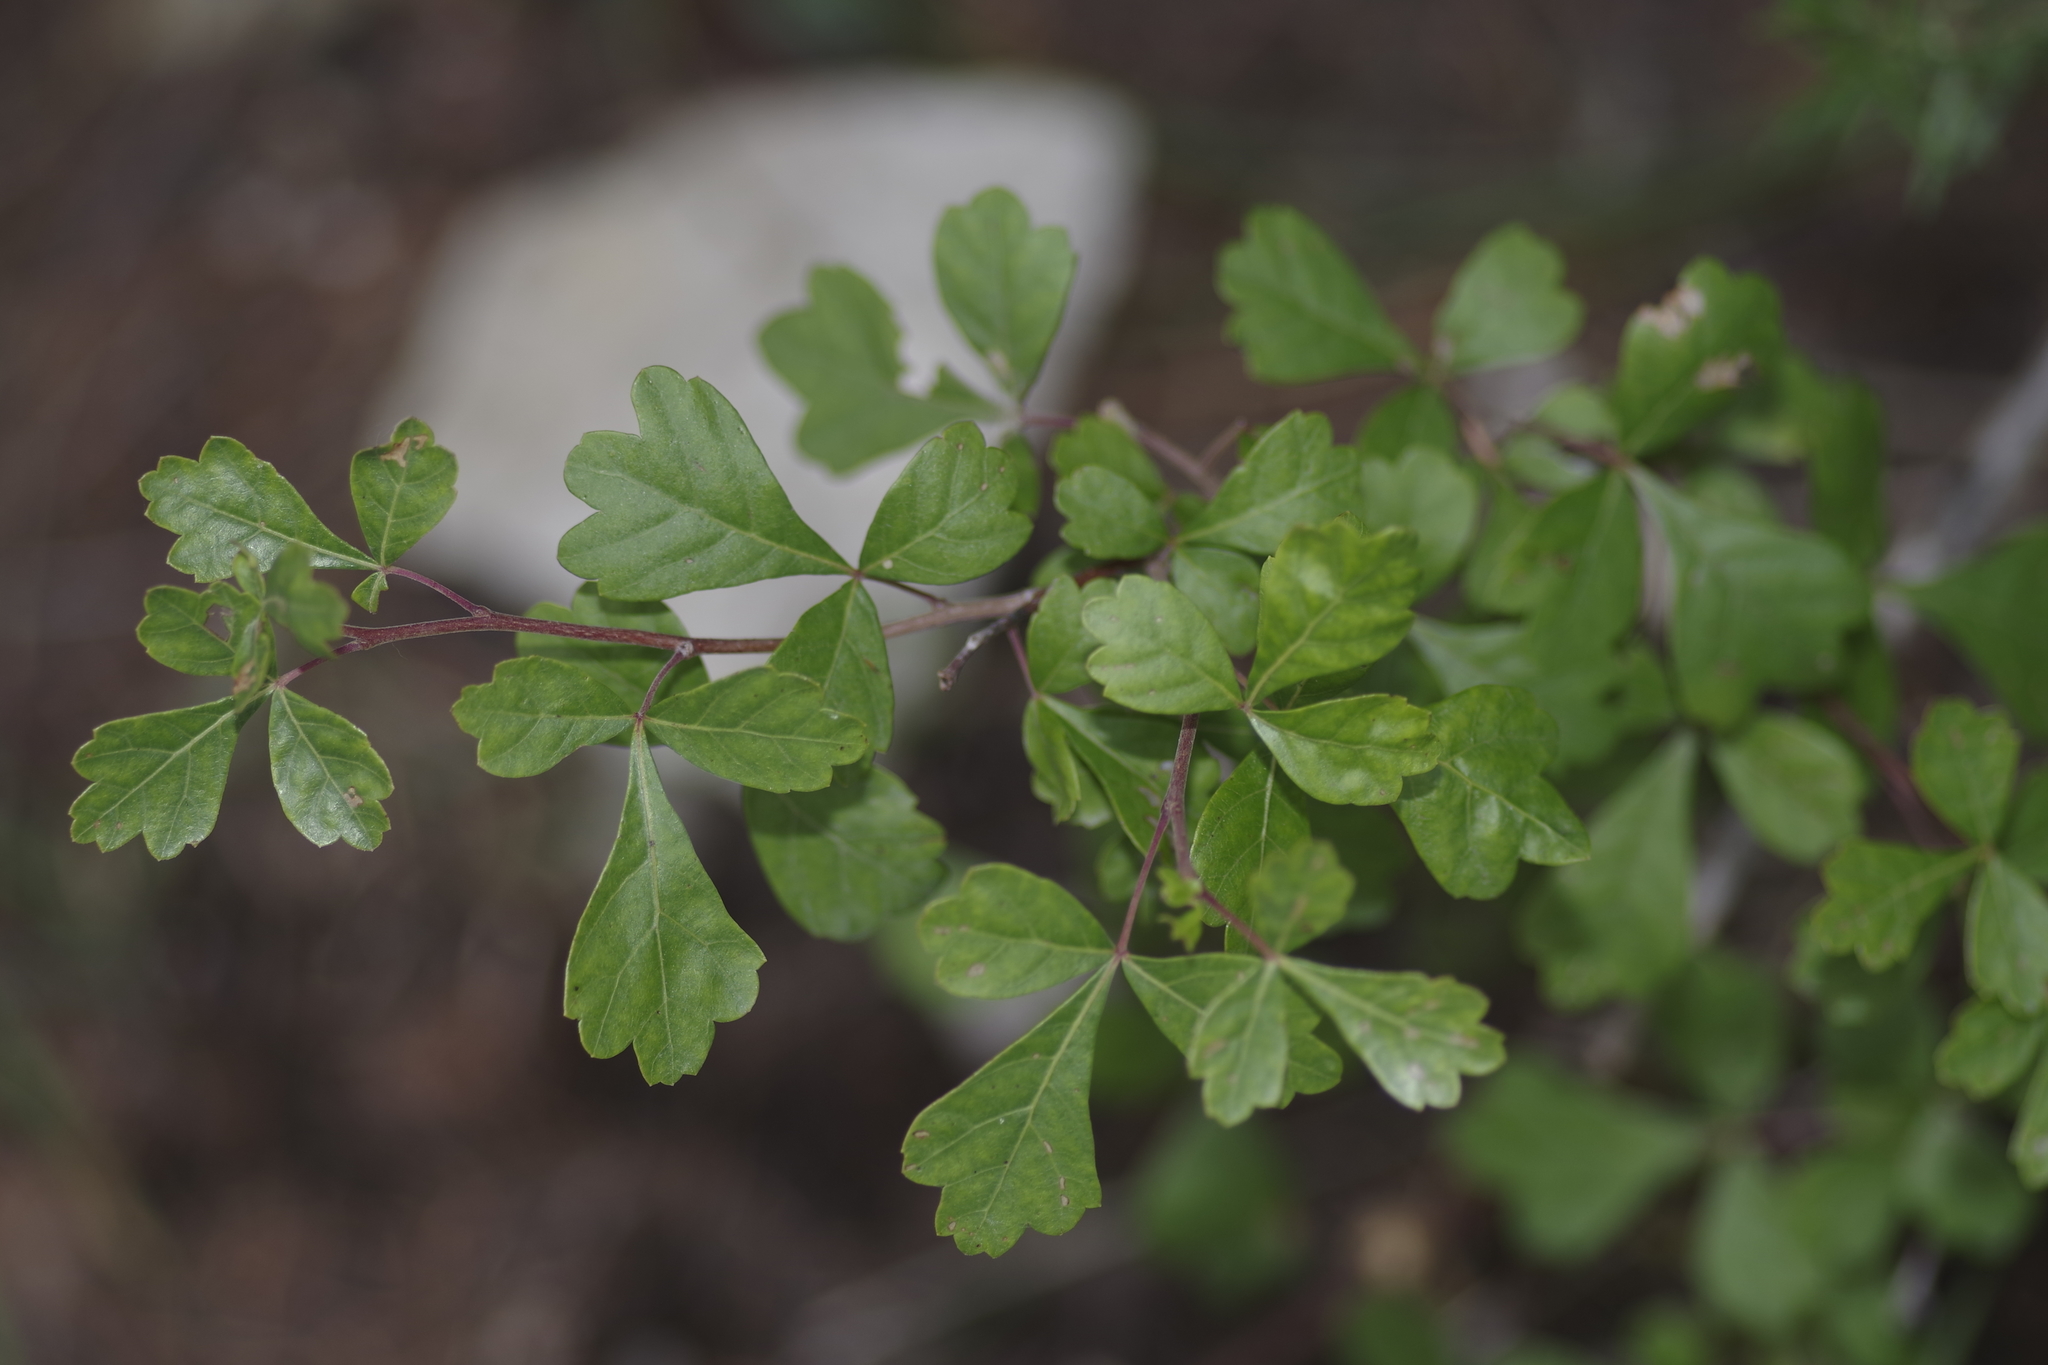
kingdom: Plantae
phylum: Tracheophyta
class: Magnoliopsida
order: Sapindales
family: Anacardiaceae
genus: Rhus
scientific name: Rhus aromatica
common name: Aromatic sumac
